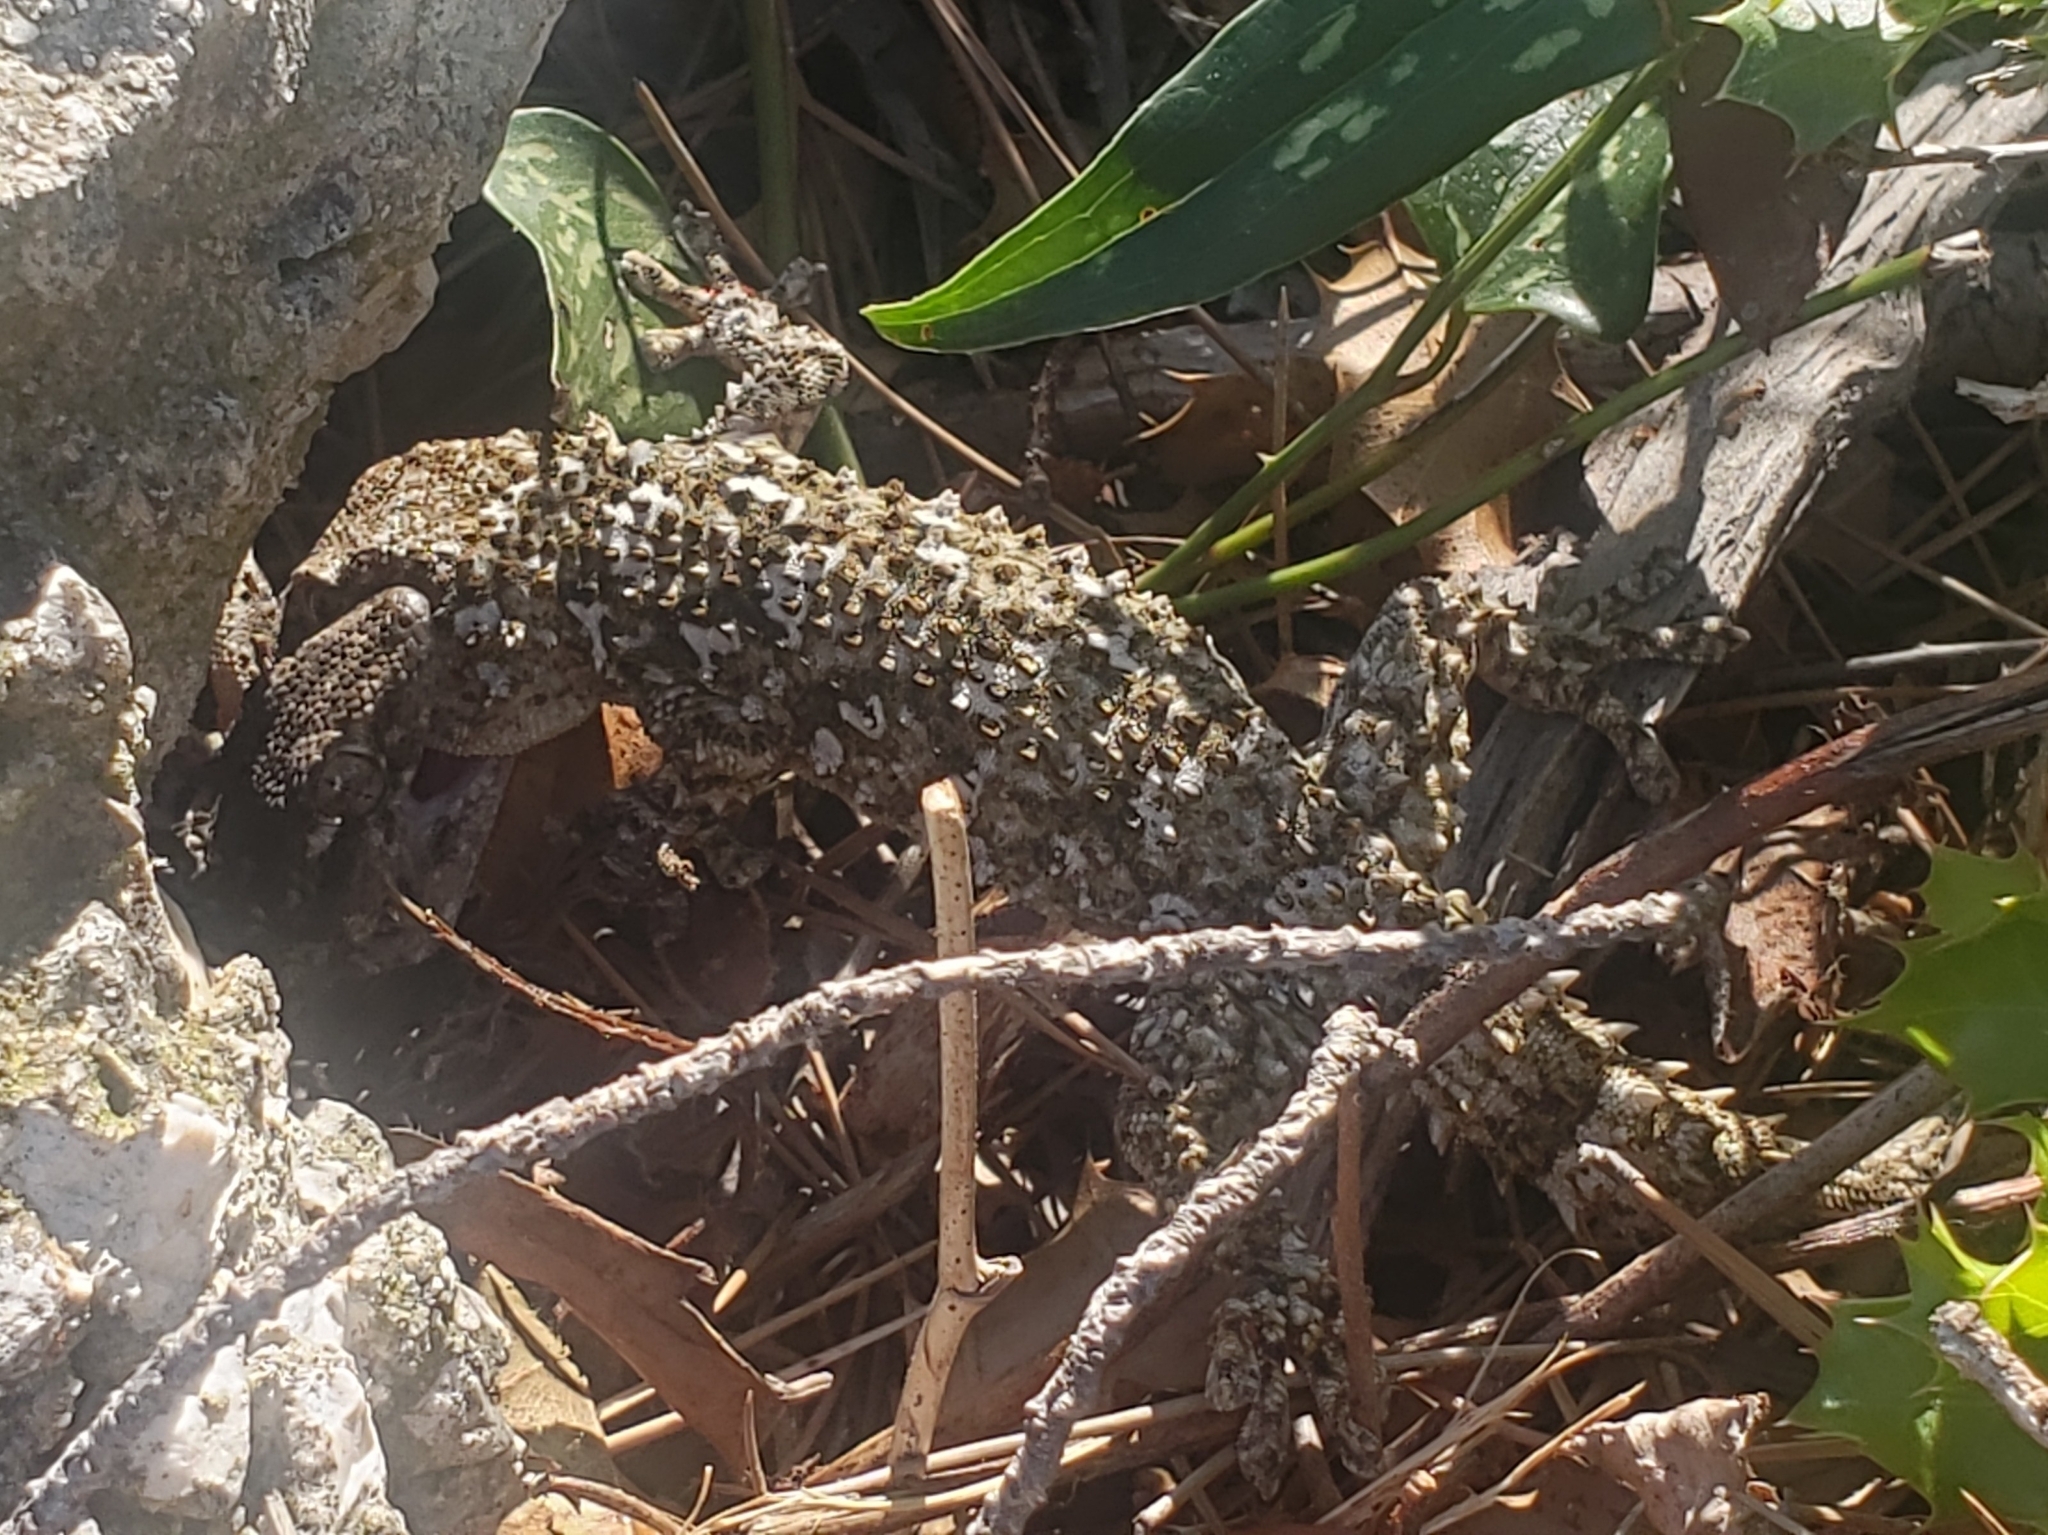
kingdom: Animalia
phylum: Chordata
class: Squamata
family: Phyllodactylidae
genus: Tarentola
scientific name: Tarentola mauritanica
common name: Moorish gecko
